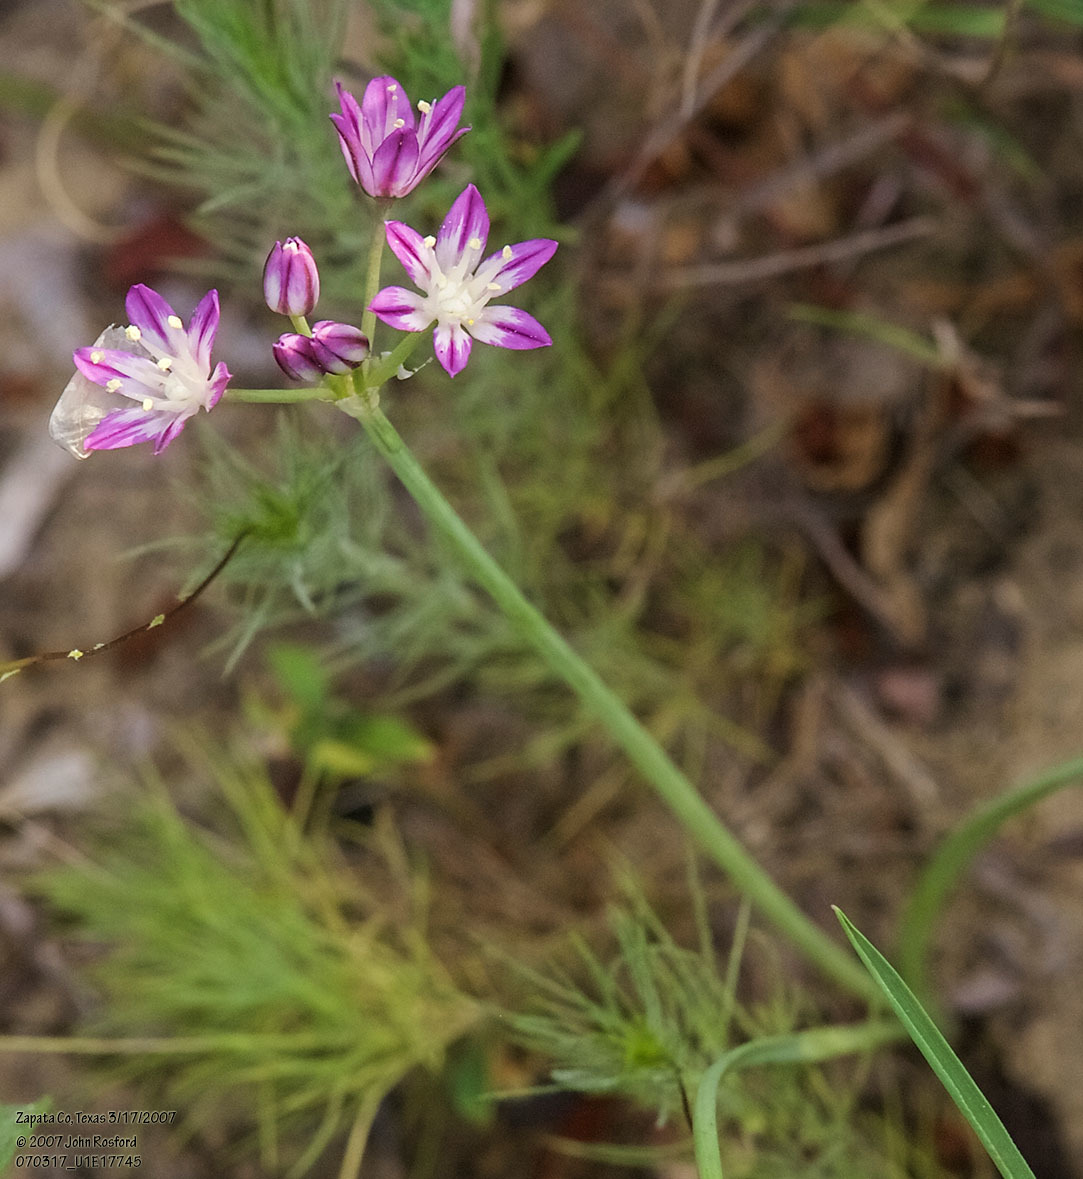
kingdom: Plantae
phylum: Tracheophyta
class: Liliopsida
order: Asparagales
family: Amaryllidaceae
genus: Allium
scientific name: Allium drummondii
